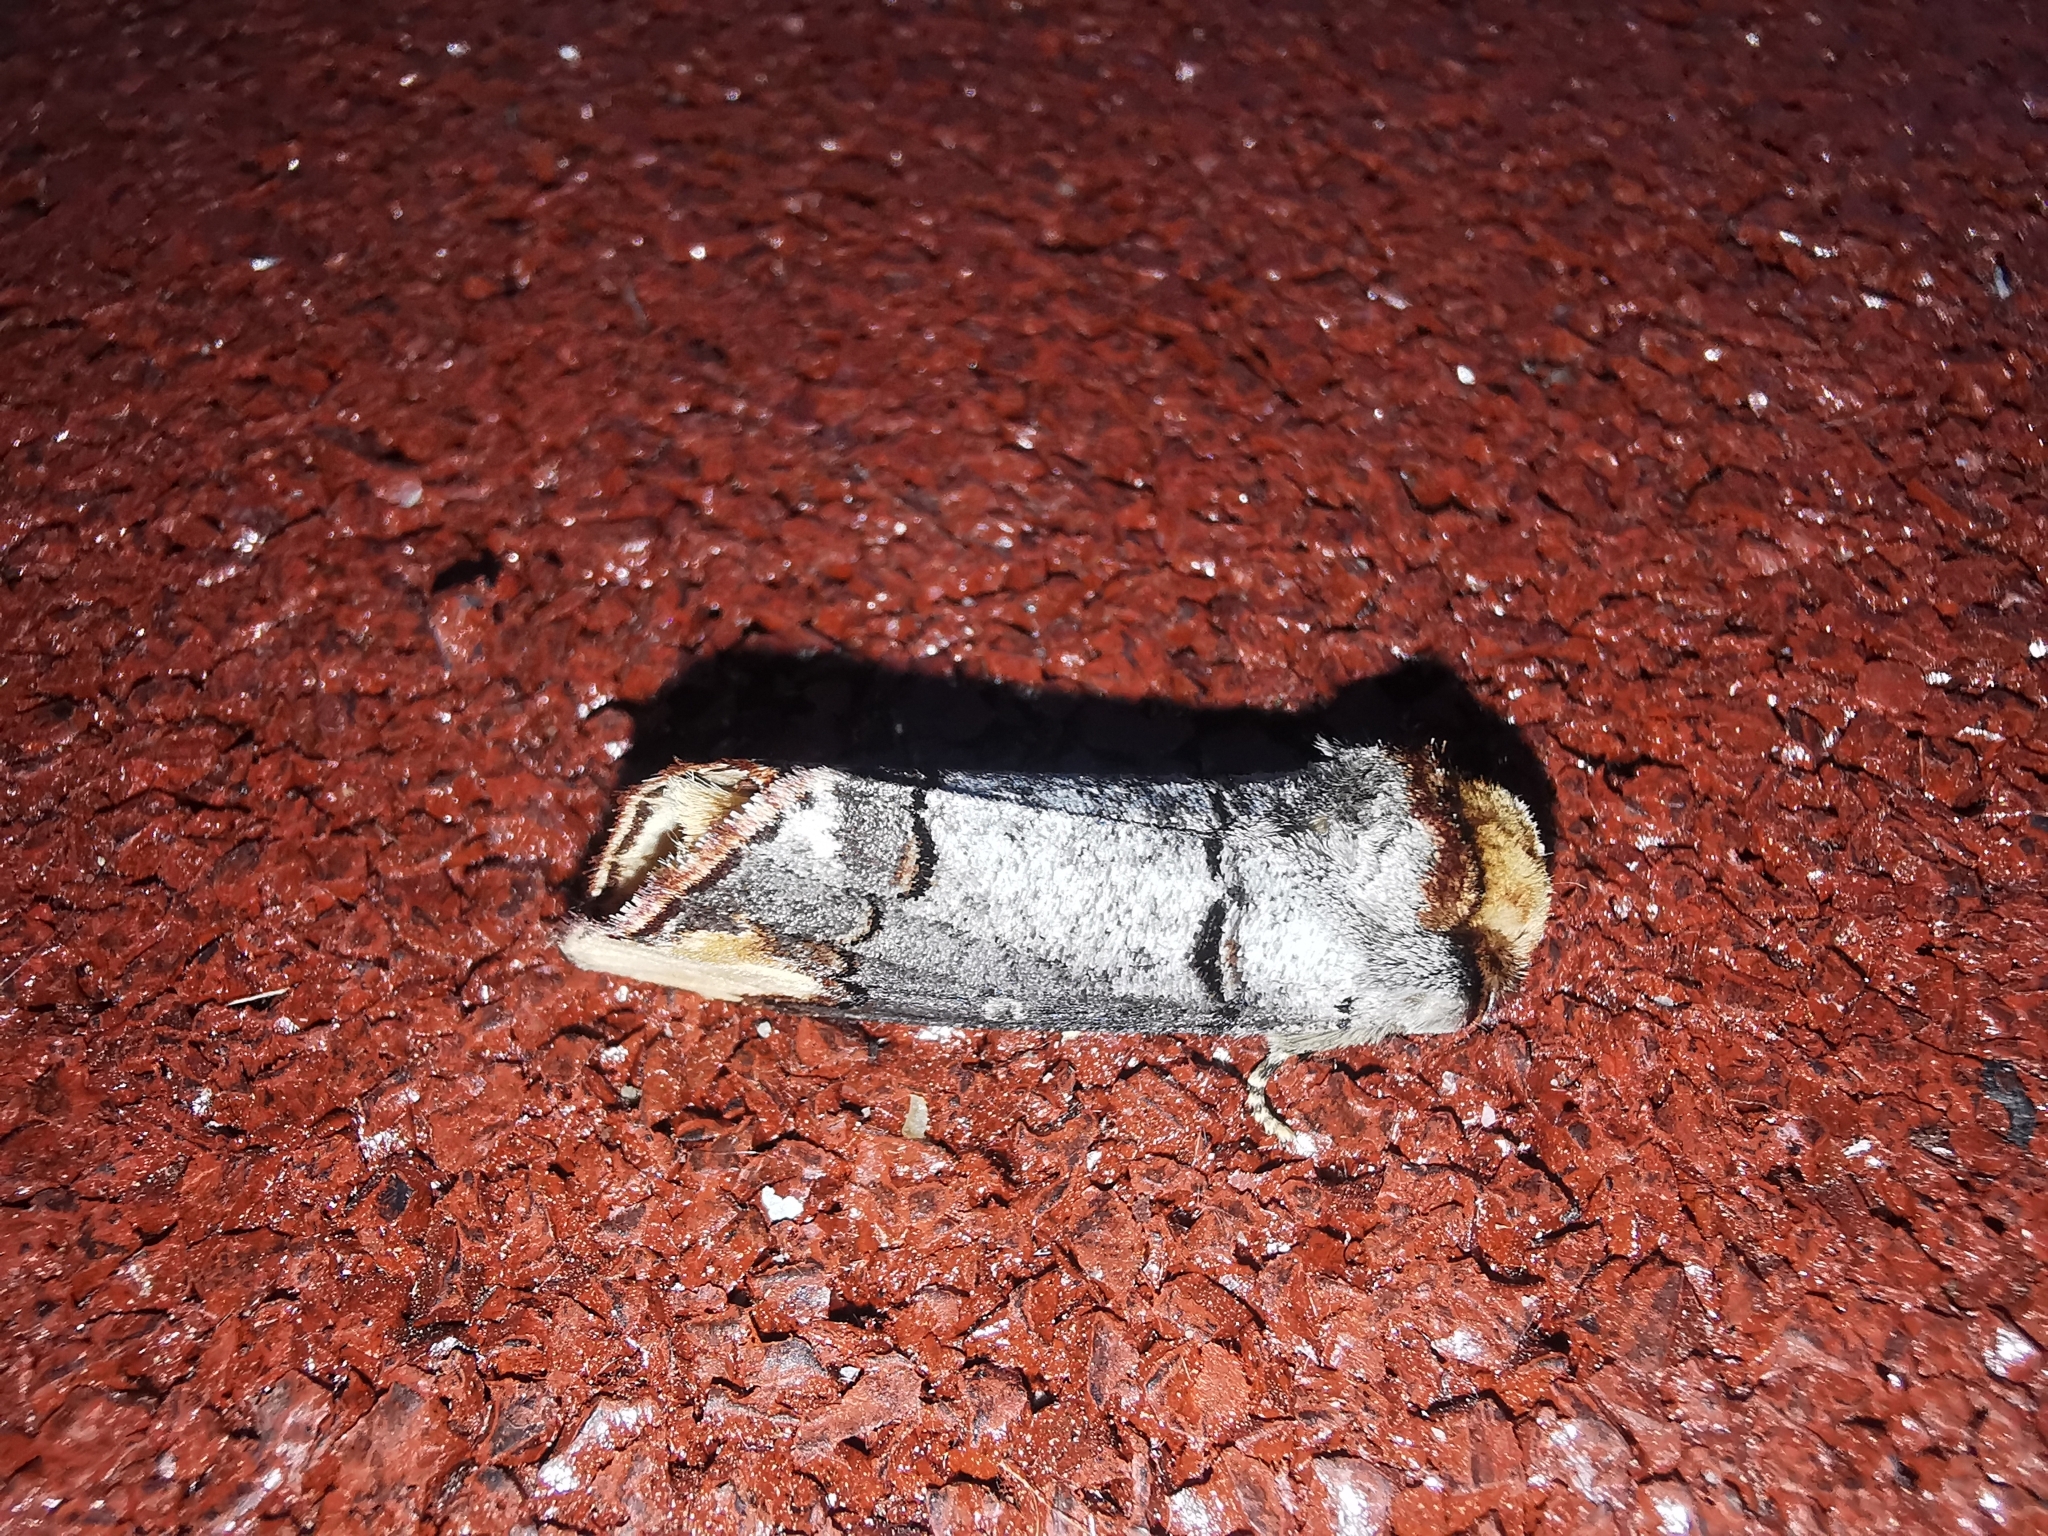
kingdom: Animalia
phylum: Arthropoda
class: Insecta
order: Lepidoptera
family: Notodontidae
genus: Phalera
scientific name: Phalera bucephala
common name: Buff-tip
